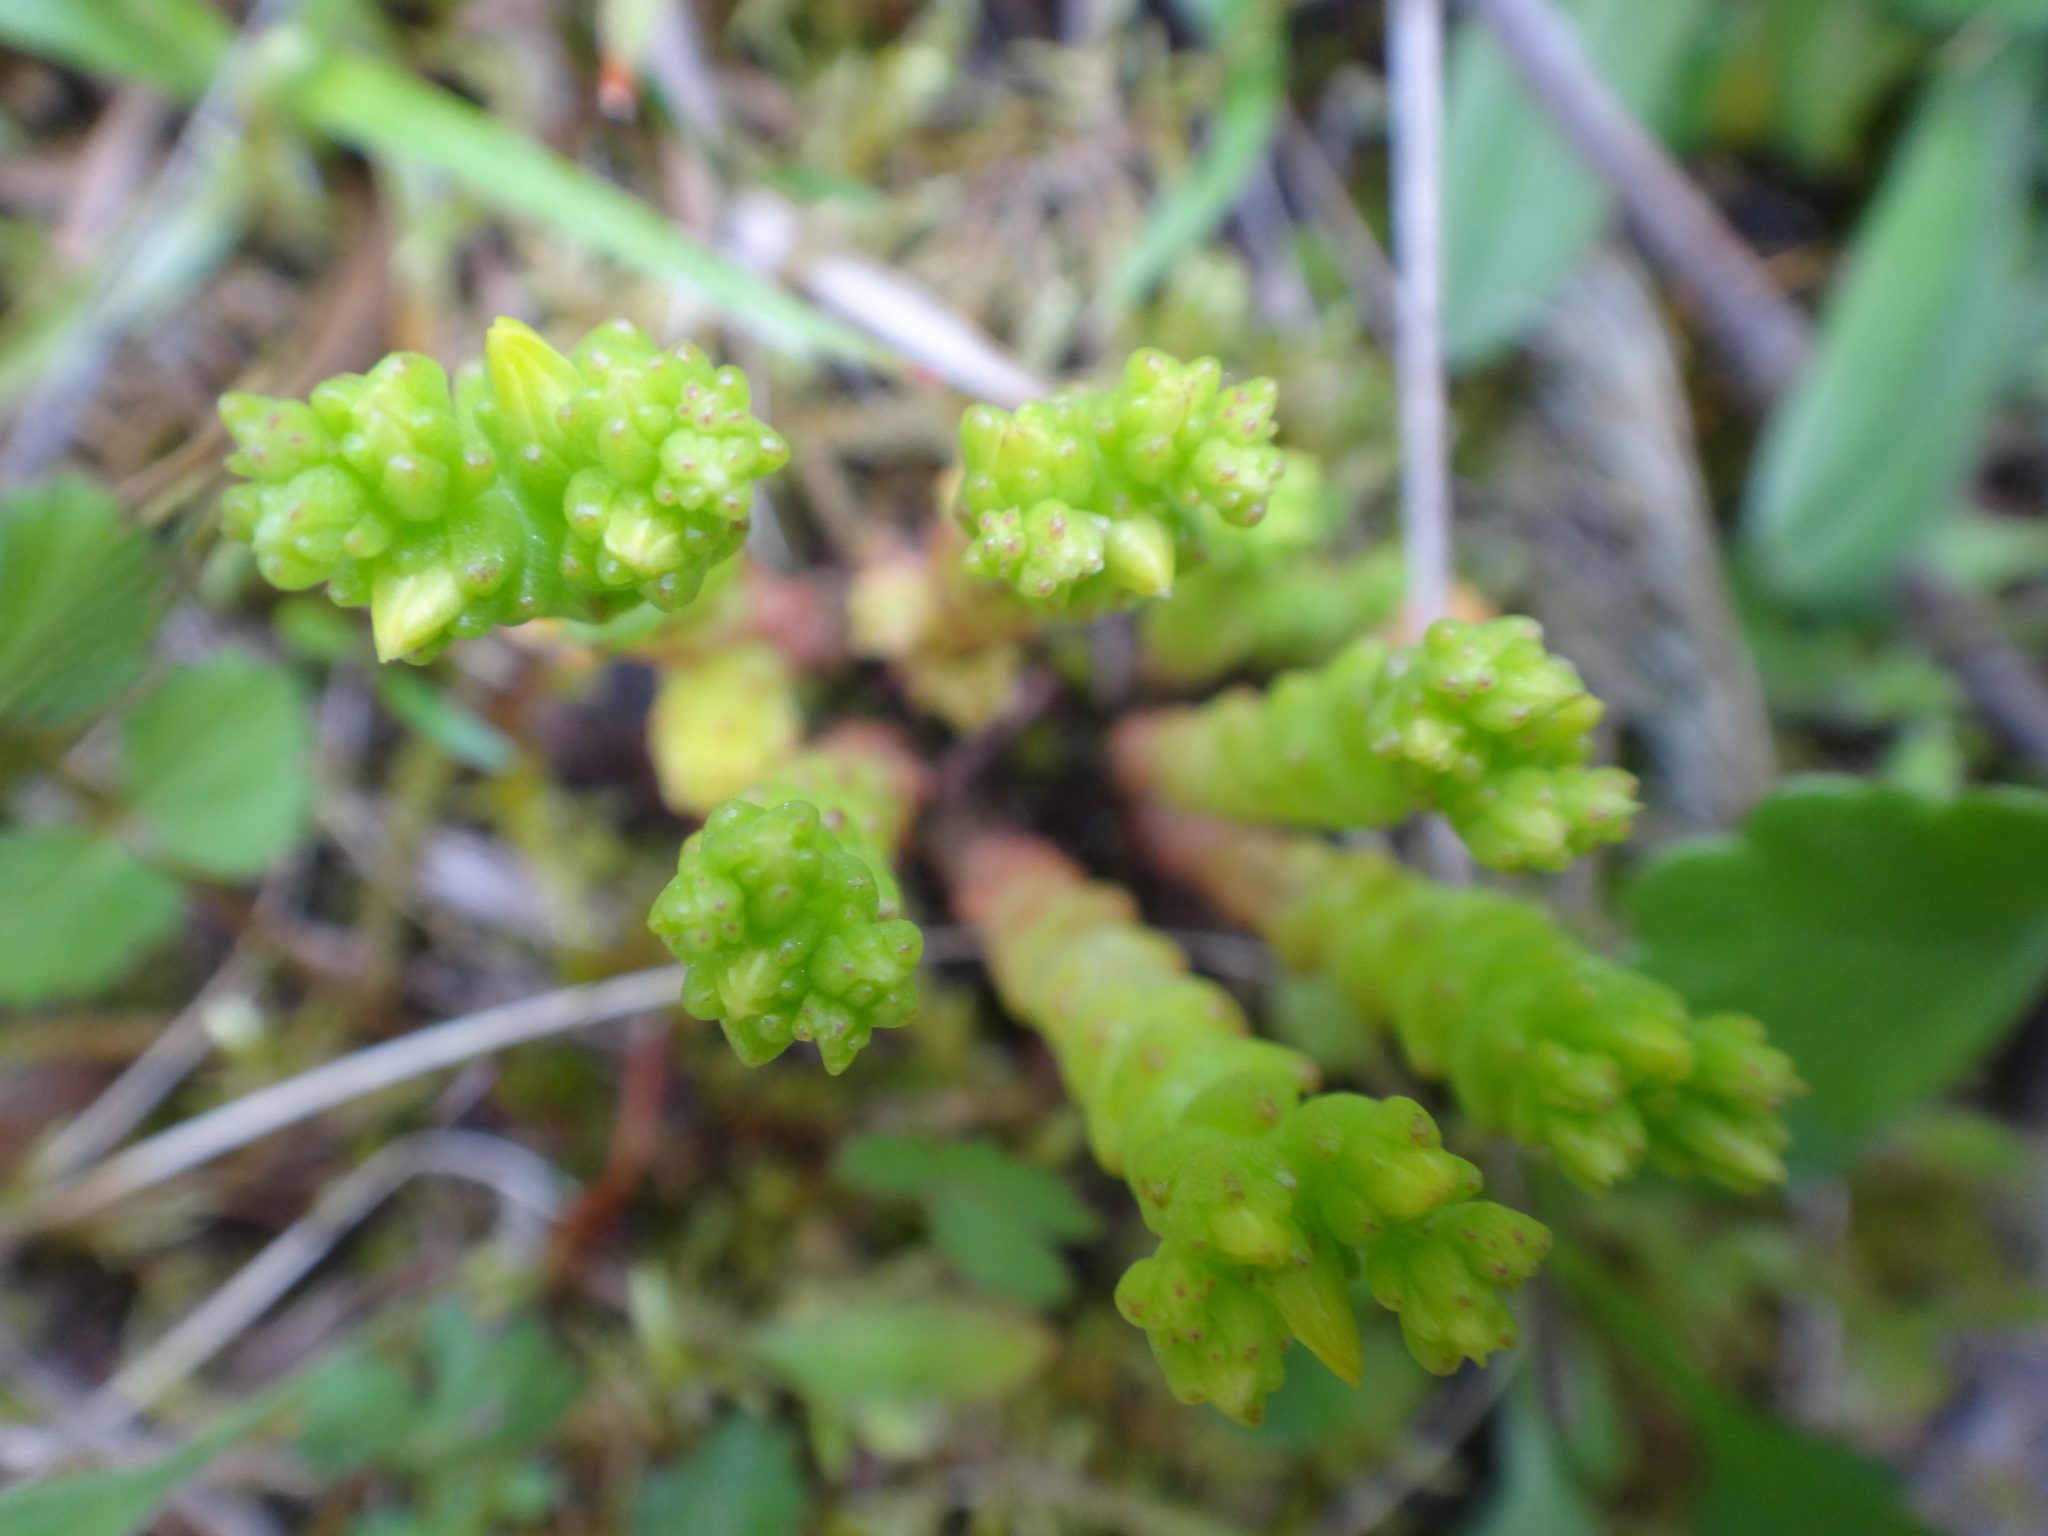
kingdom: Plantae
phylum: Tracheophyta
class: Magnoliopsida
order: Saxifragales
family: Crassulaceae
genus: Sedum
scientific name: Sedum acre
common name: Biting stonecrop
